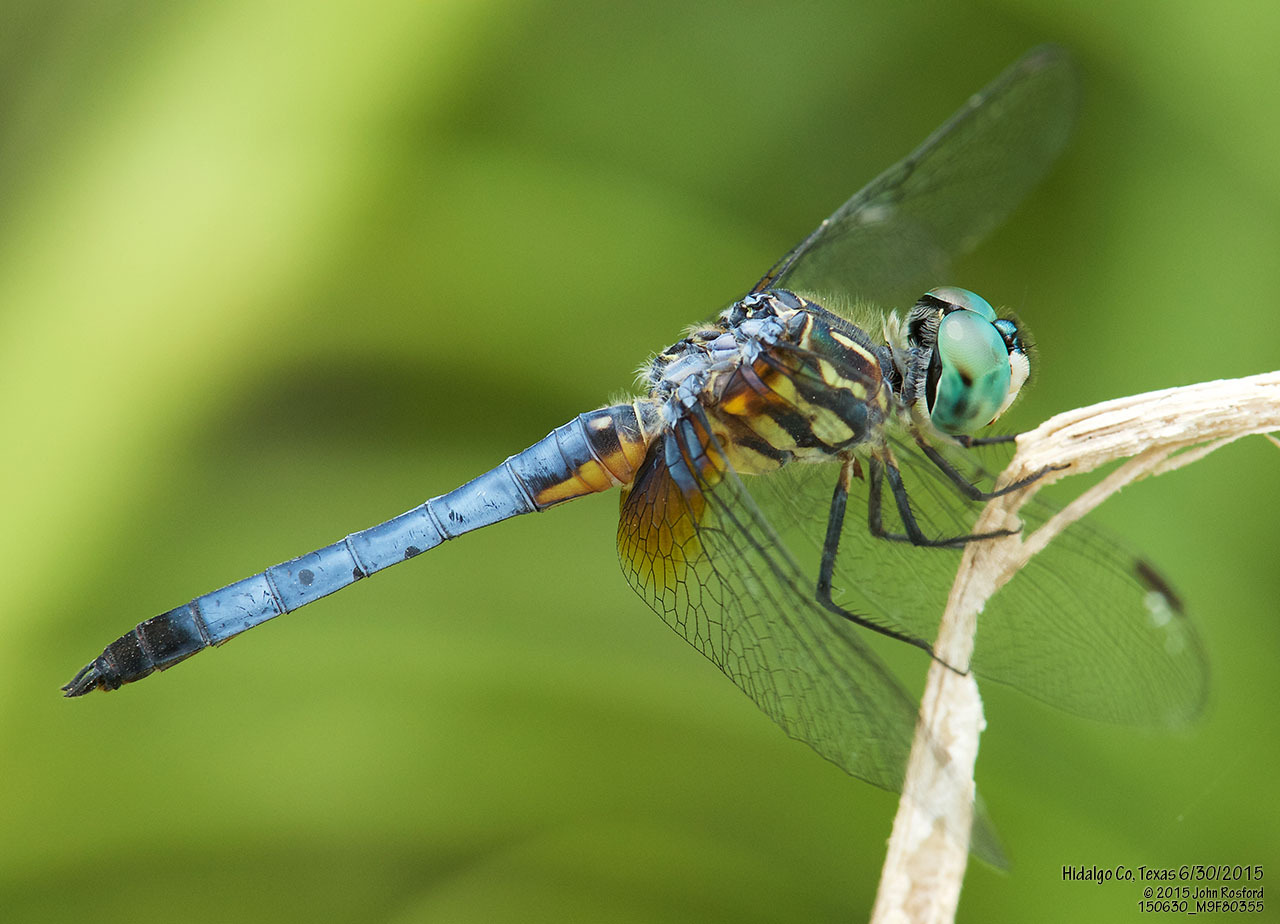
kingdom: Animalia
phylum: Arthropoda
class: Insecta
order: Odonata
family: Libellulidae
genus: Pachydiplax
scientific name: Pachydiplax longipennis
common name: Blue dasher
